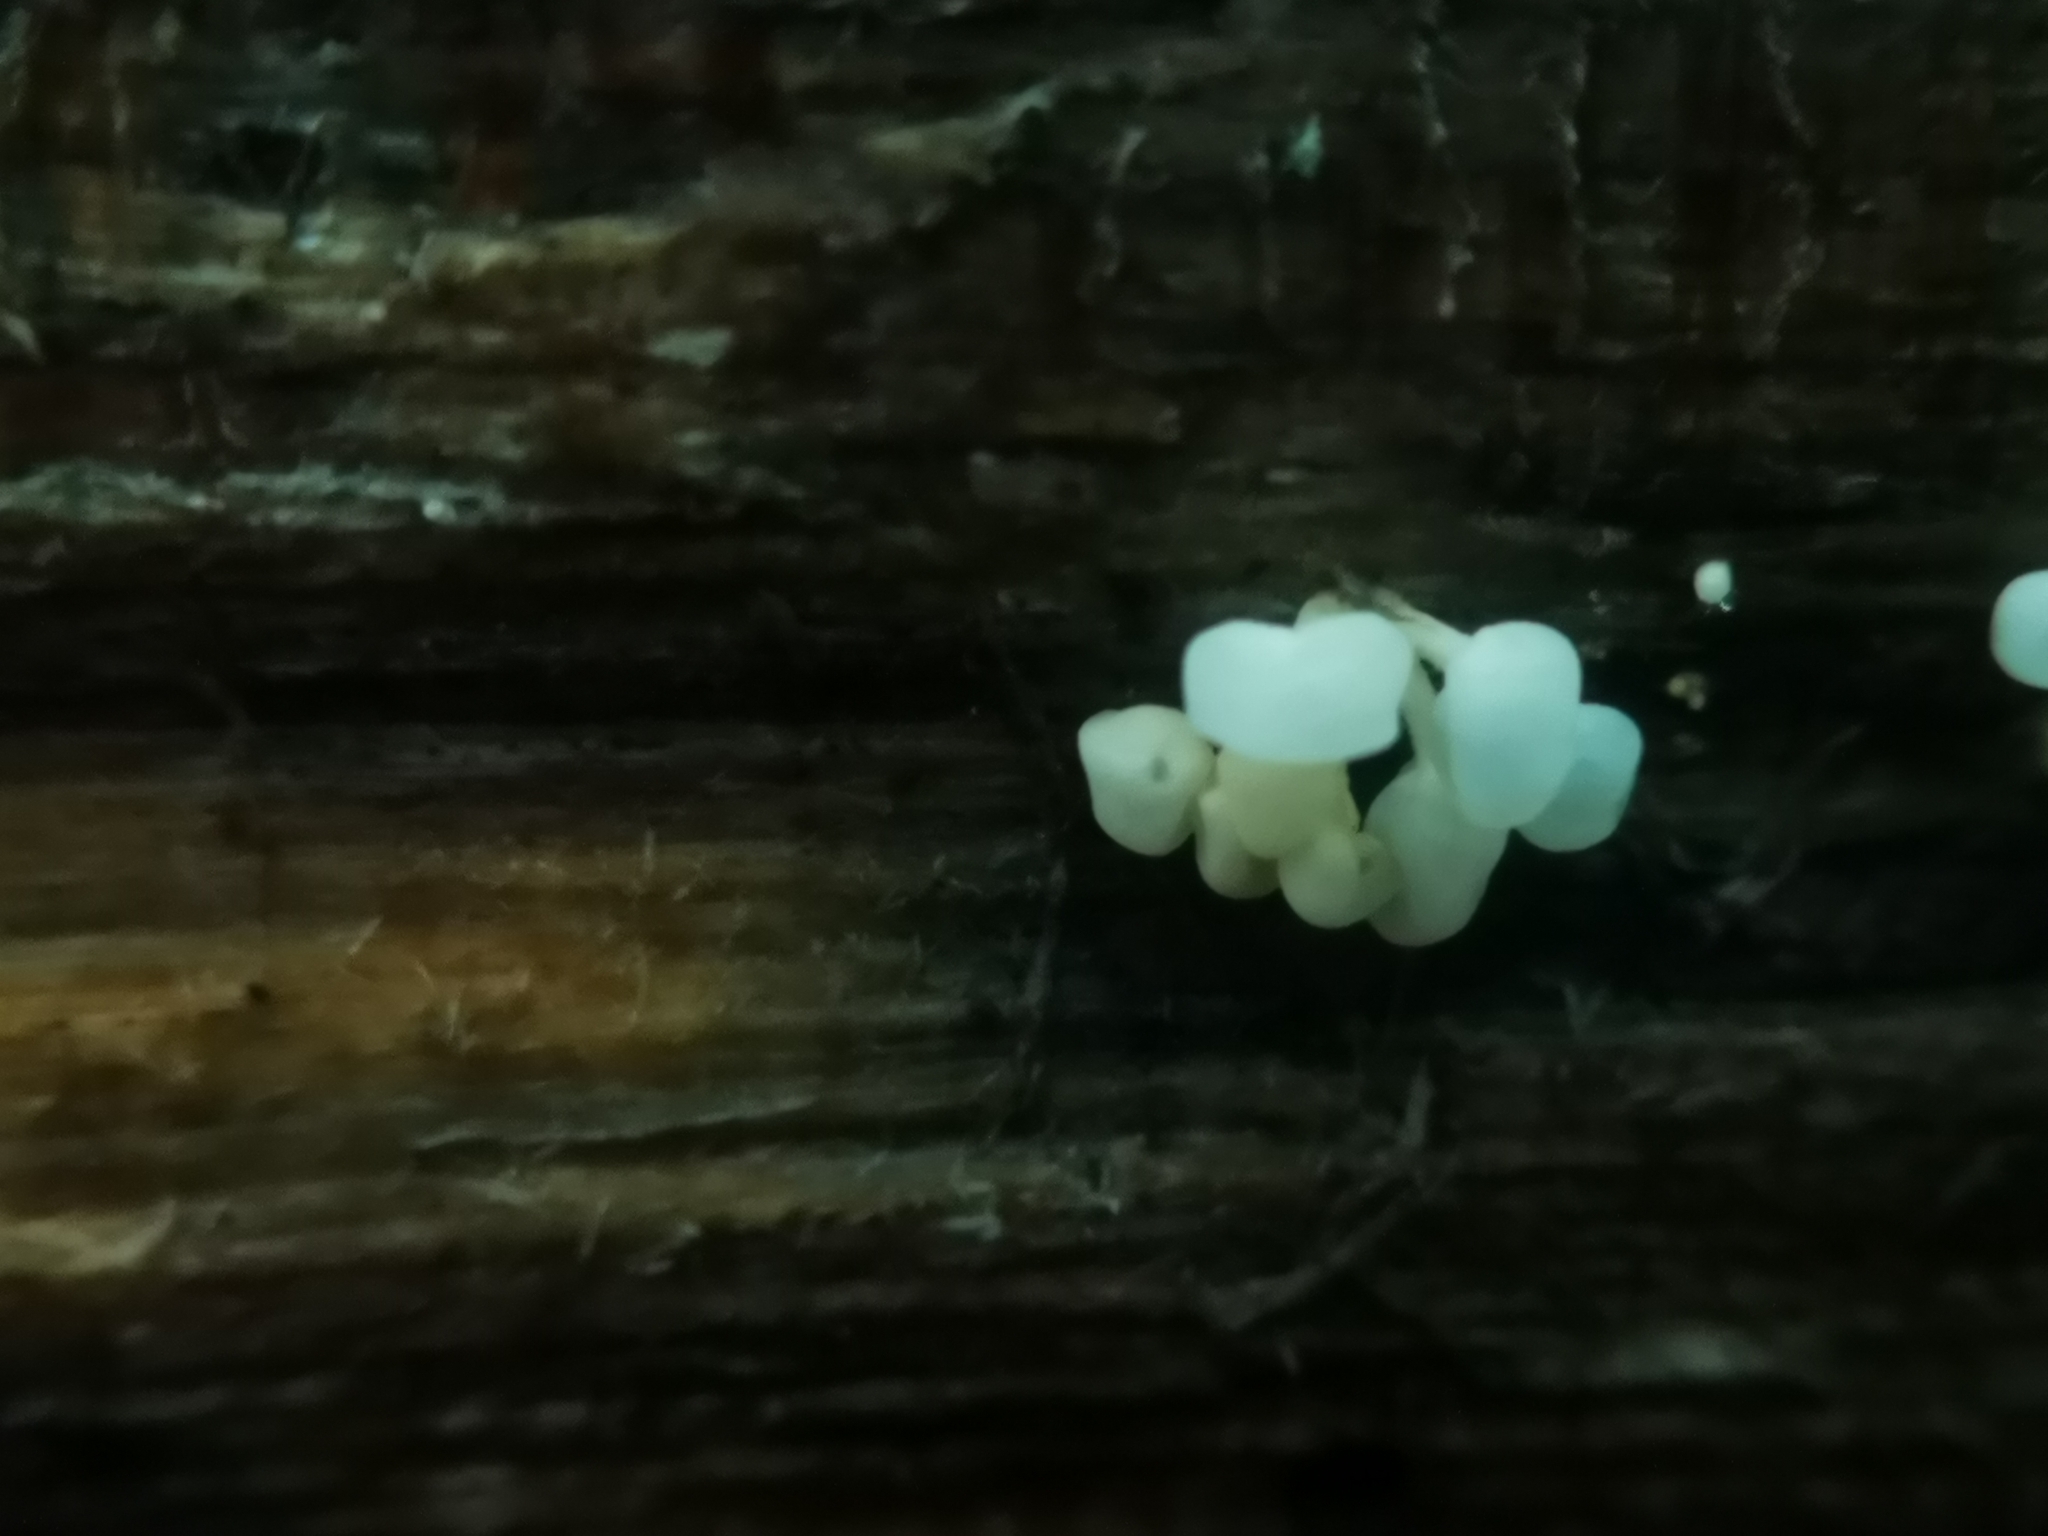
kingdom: Fungi
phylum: Basidiomycota
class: Agaricomycetes
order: Agaricales
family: Physalacriaceae
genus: Physalacria
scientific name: Physalacria inflata
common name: Bladder stalks
